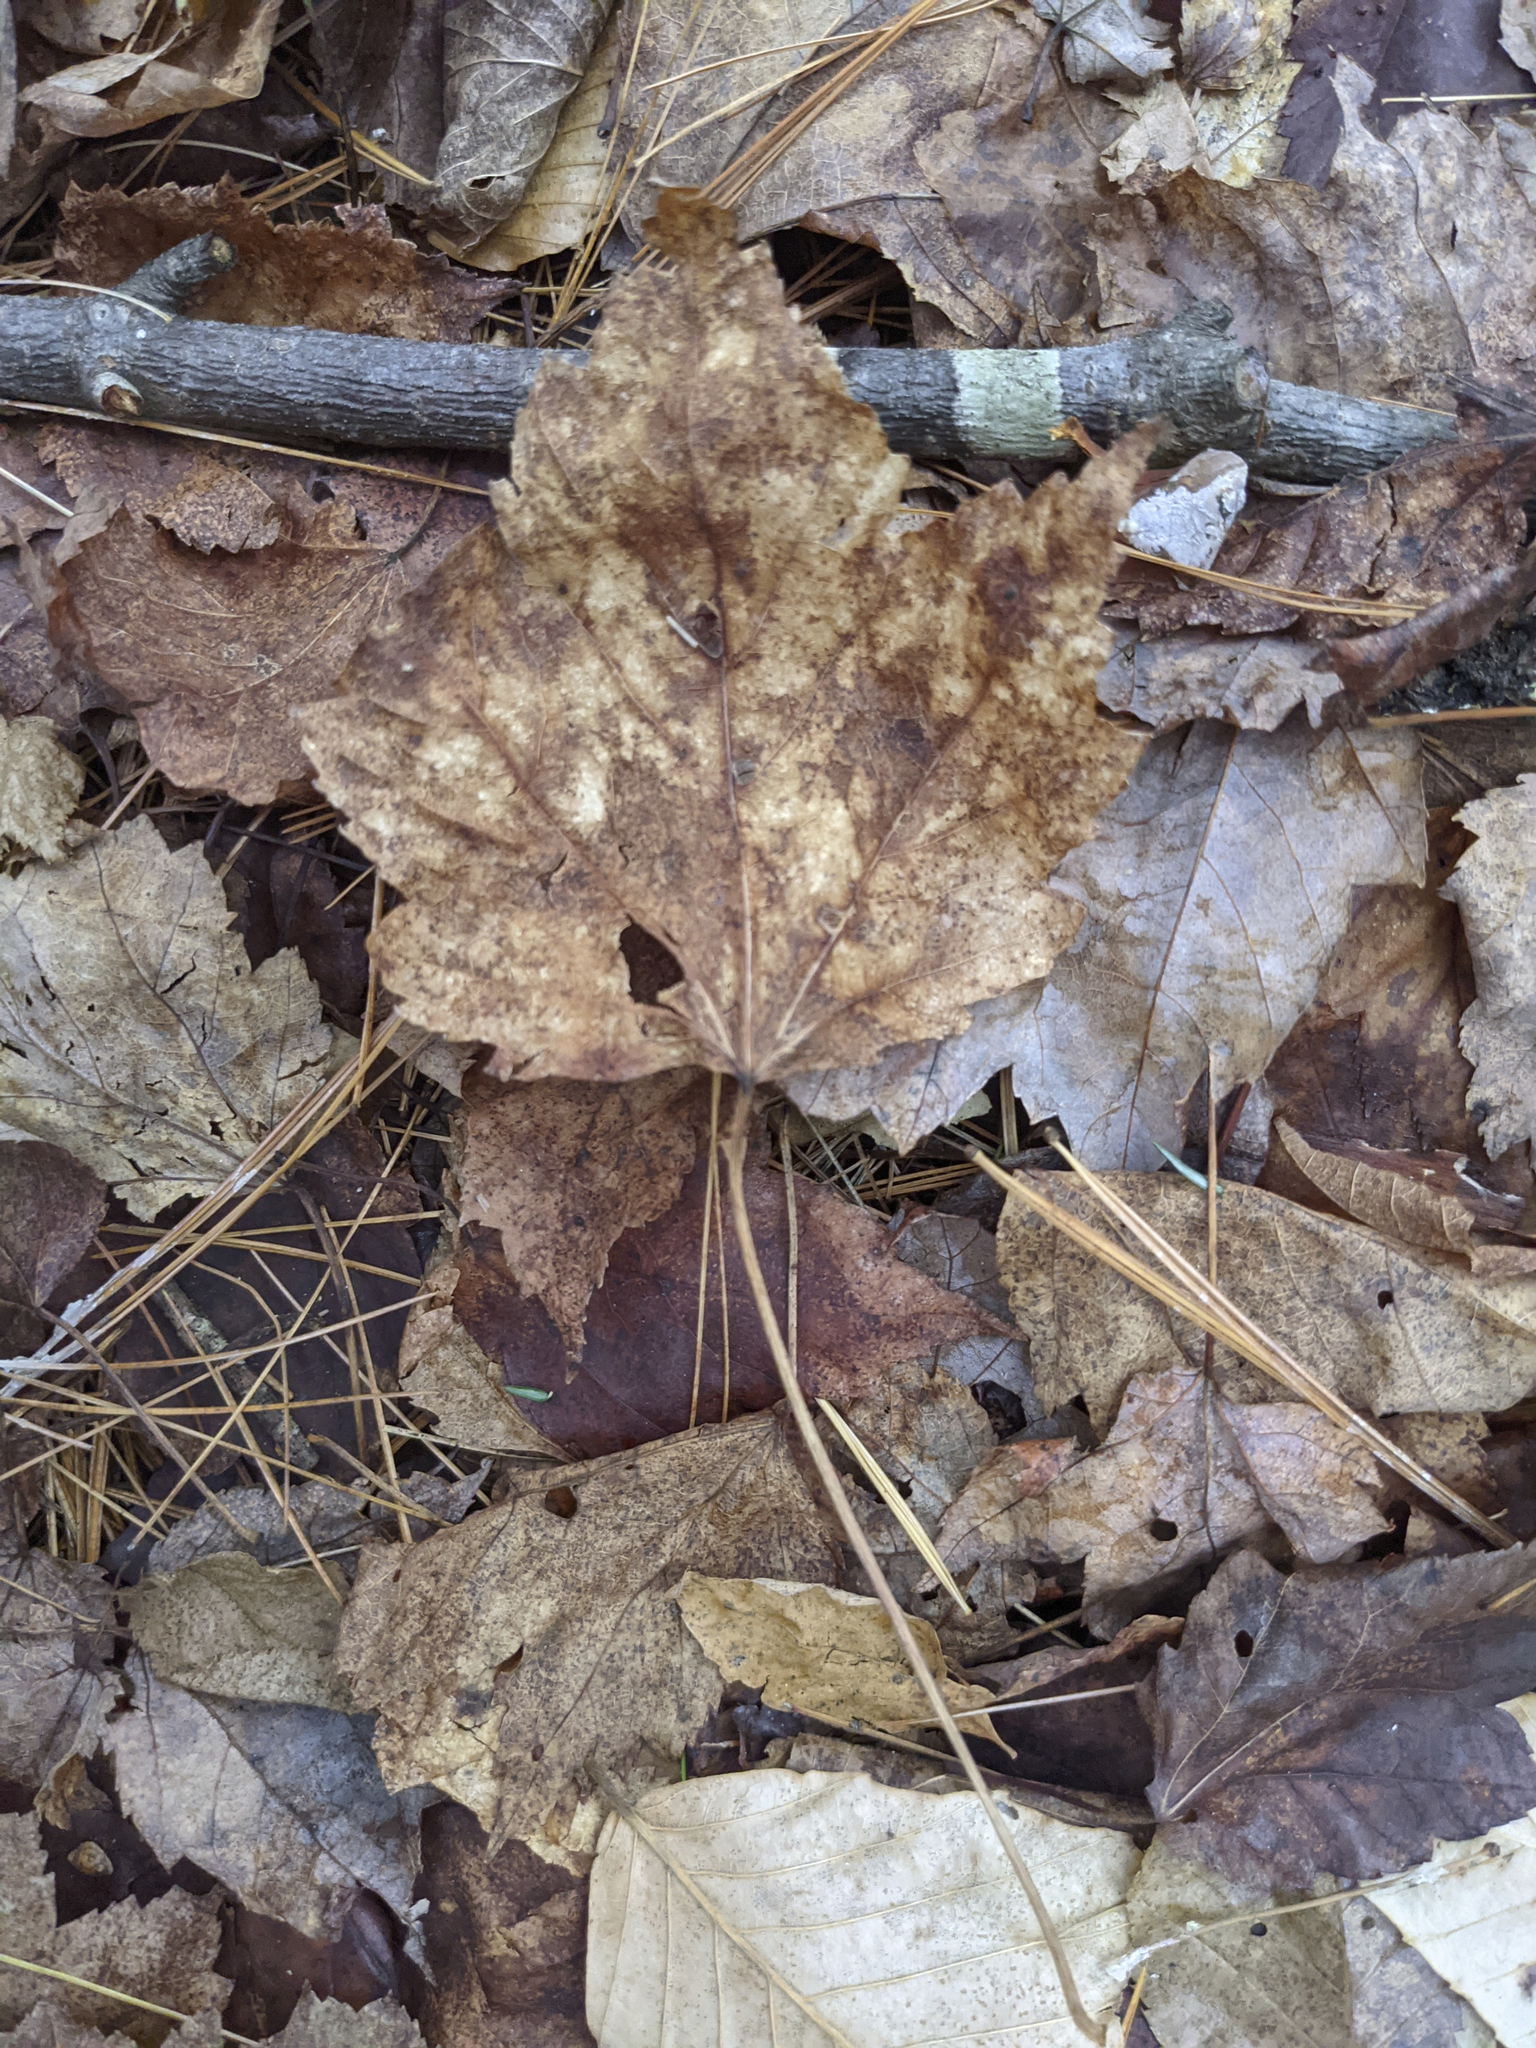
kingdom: Plantae
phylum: Tracheophyta
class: Magnoliopsida
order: Sapindales
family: Sapindaceae
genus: Acer
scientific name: Acer rubrum
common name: Red maple
